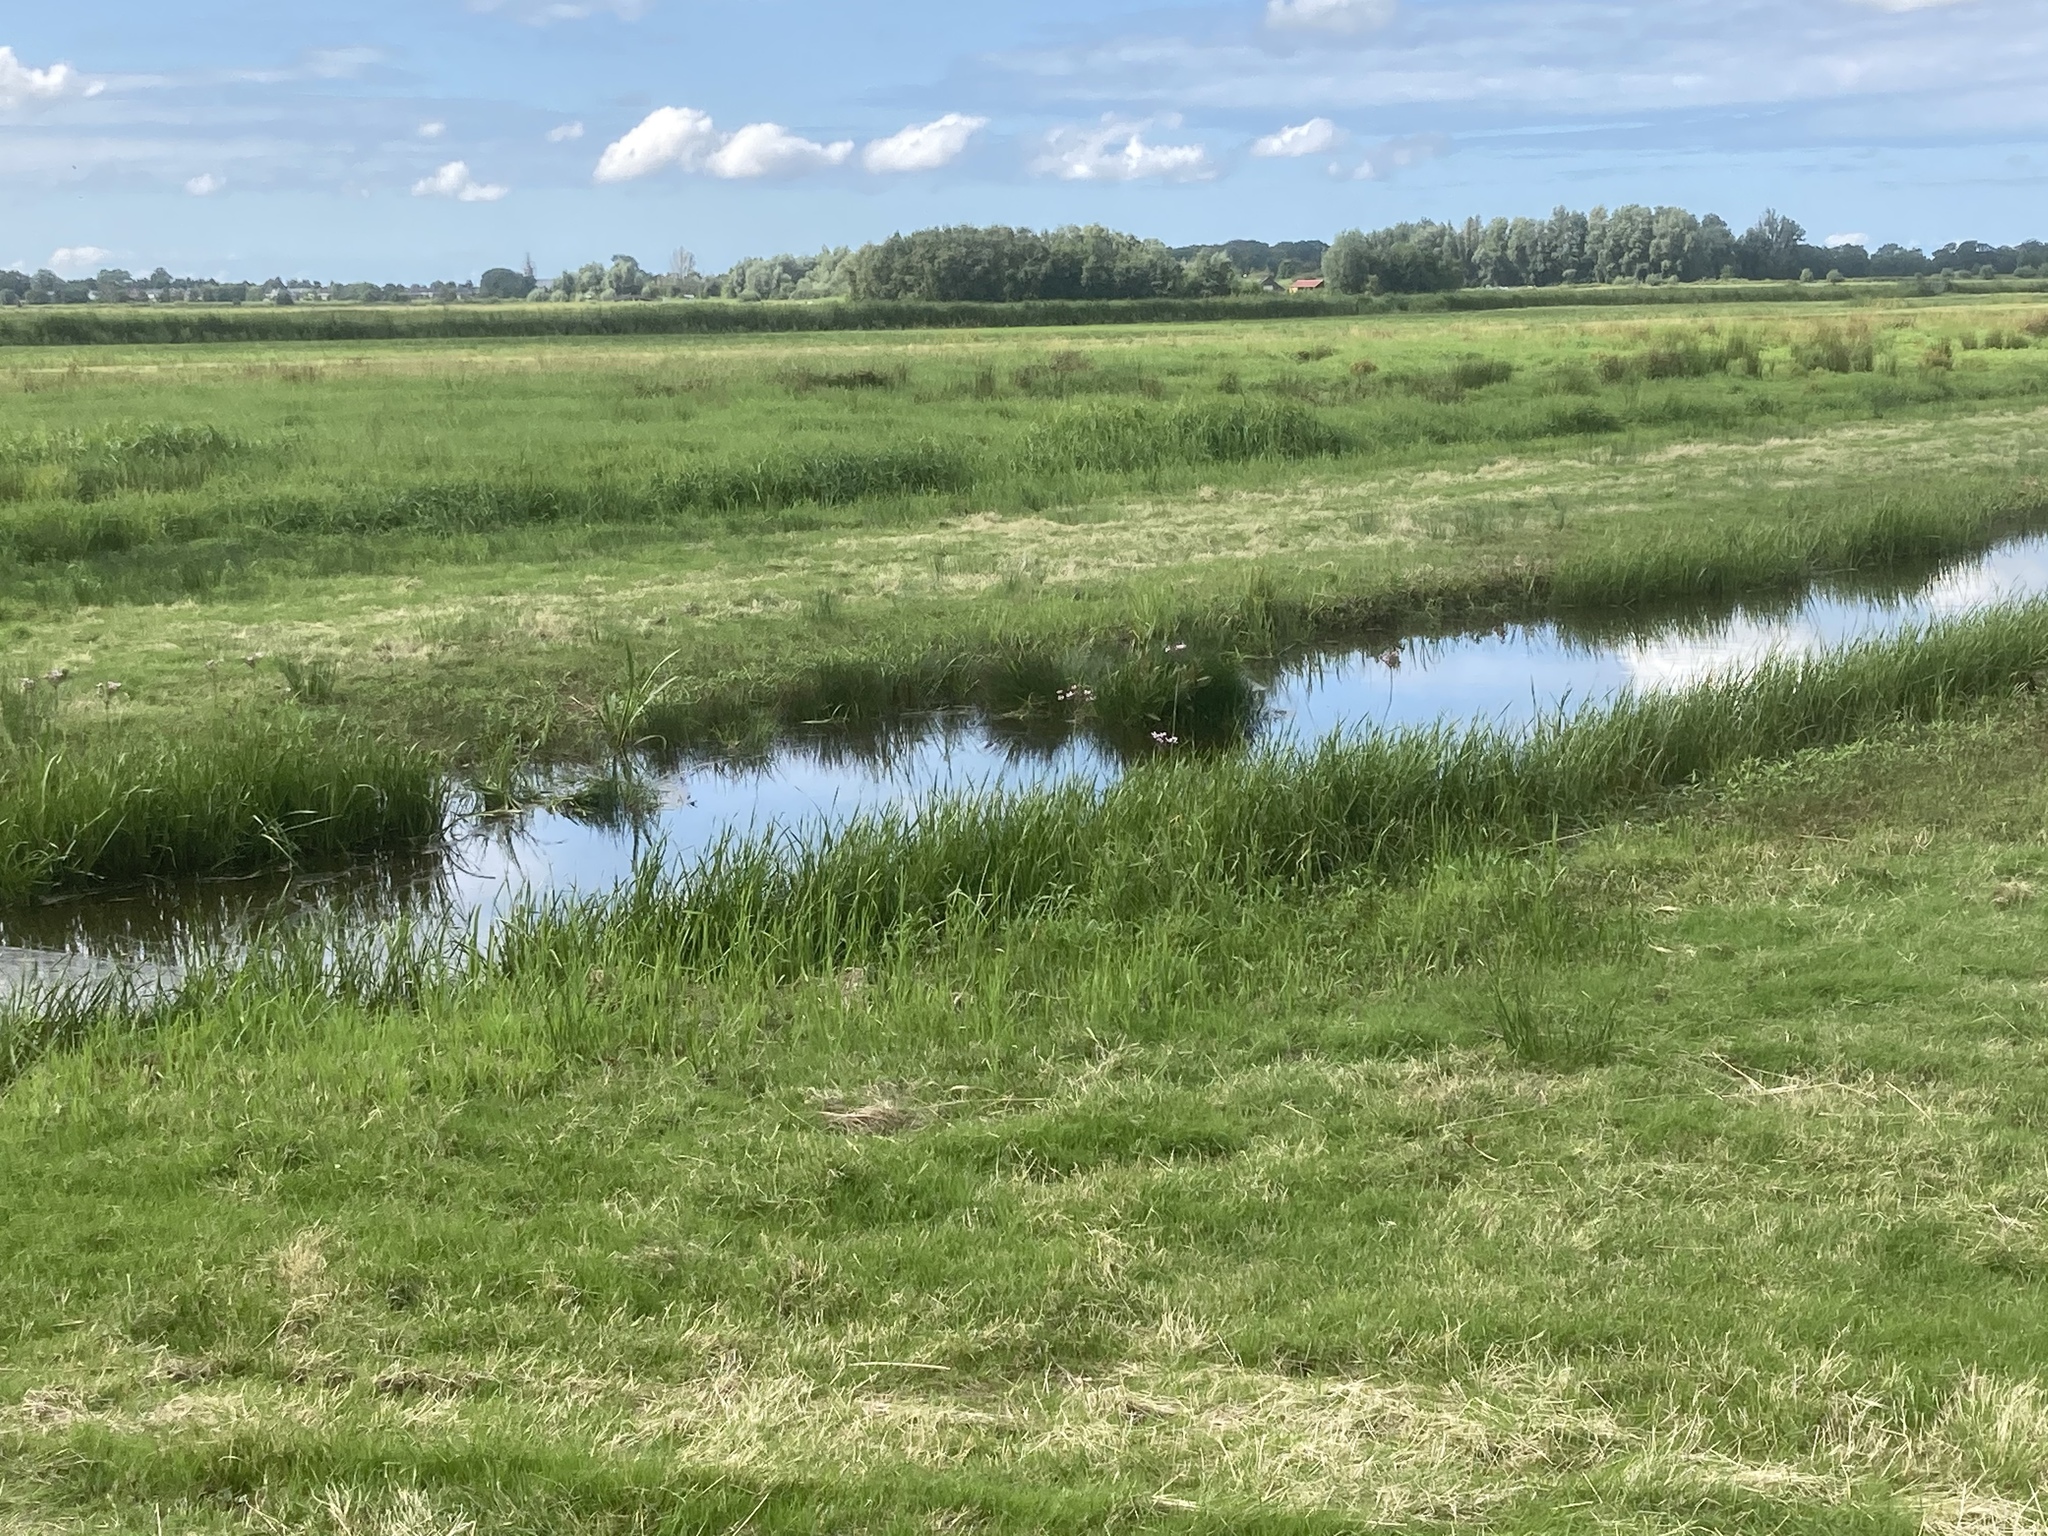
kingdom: Plantae
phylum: Tracheophyta
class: Liliopsida
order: Alismatales
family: Butomaceae
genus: Butomus
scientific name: Butomus umbellatus
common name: Flowering-rush
